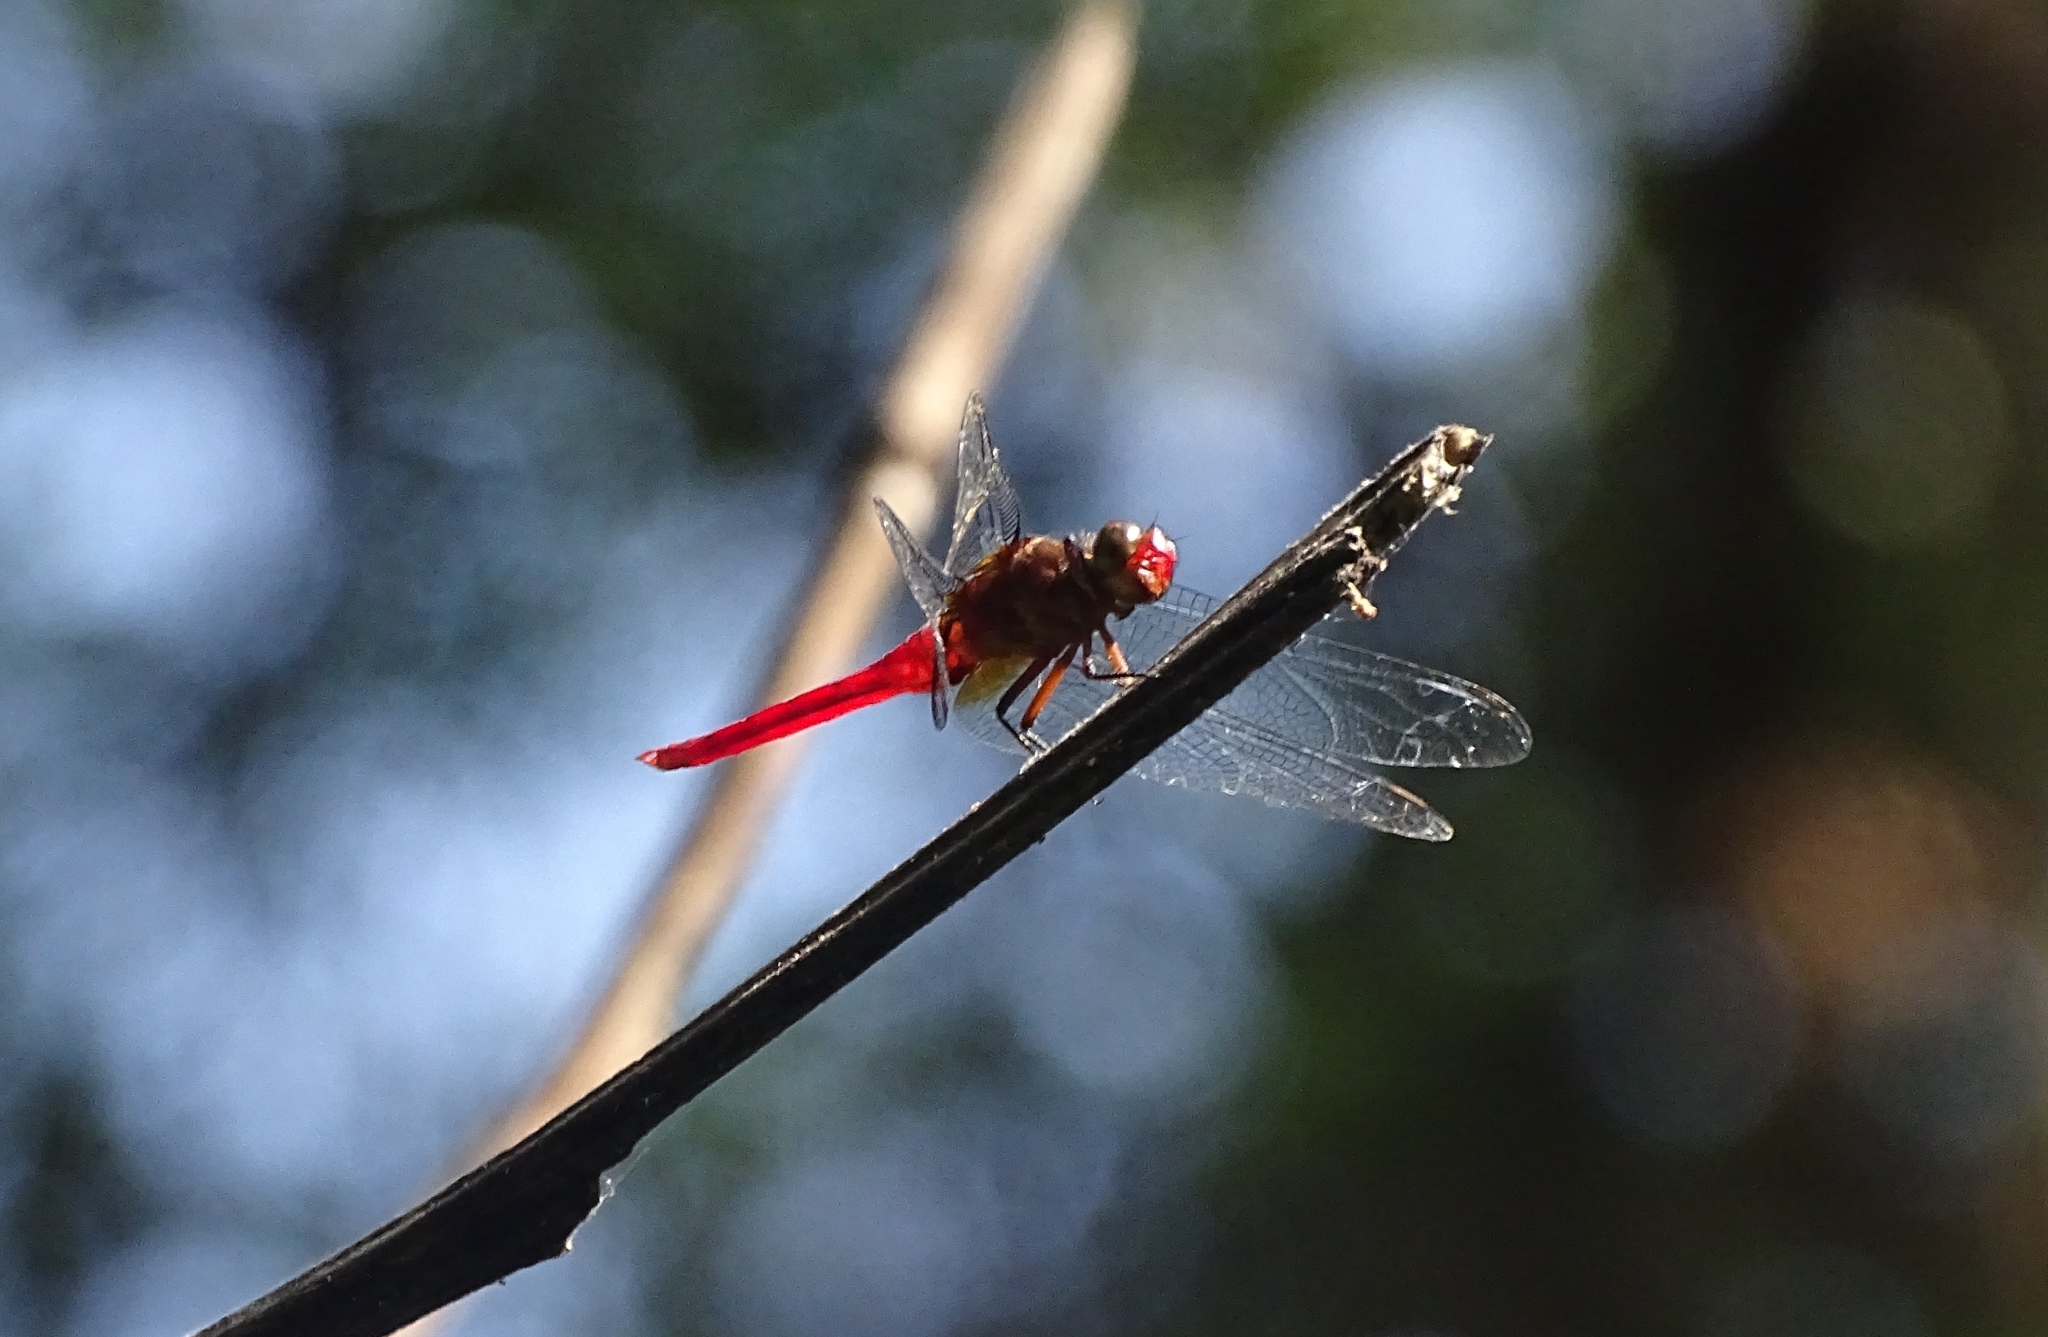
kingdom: Animalia
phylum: Arthropoda
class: Insecta
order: Odonata
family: Libellulidae
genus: Orthetrum
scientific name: Orthetrum chrysis
